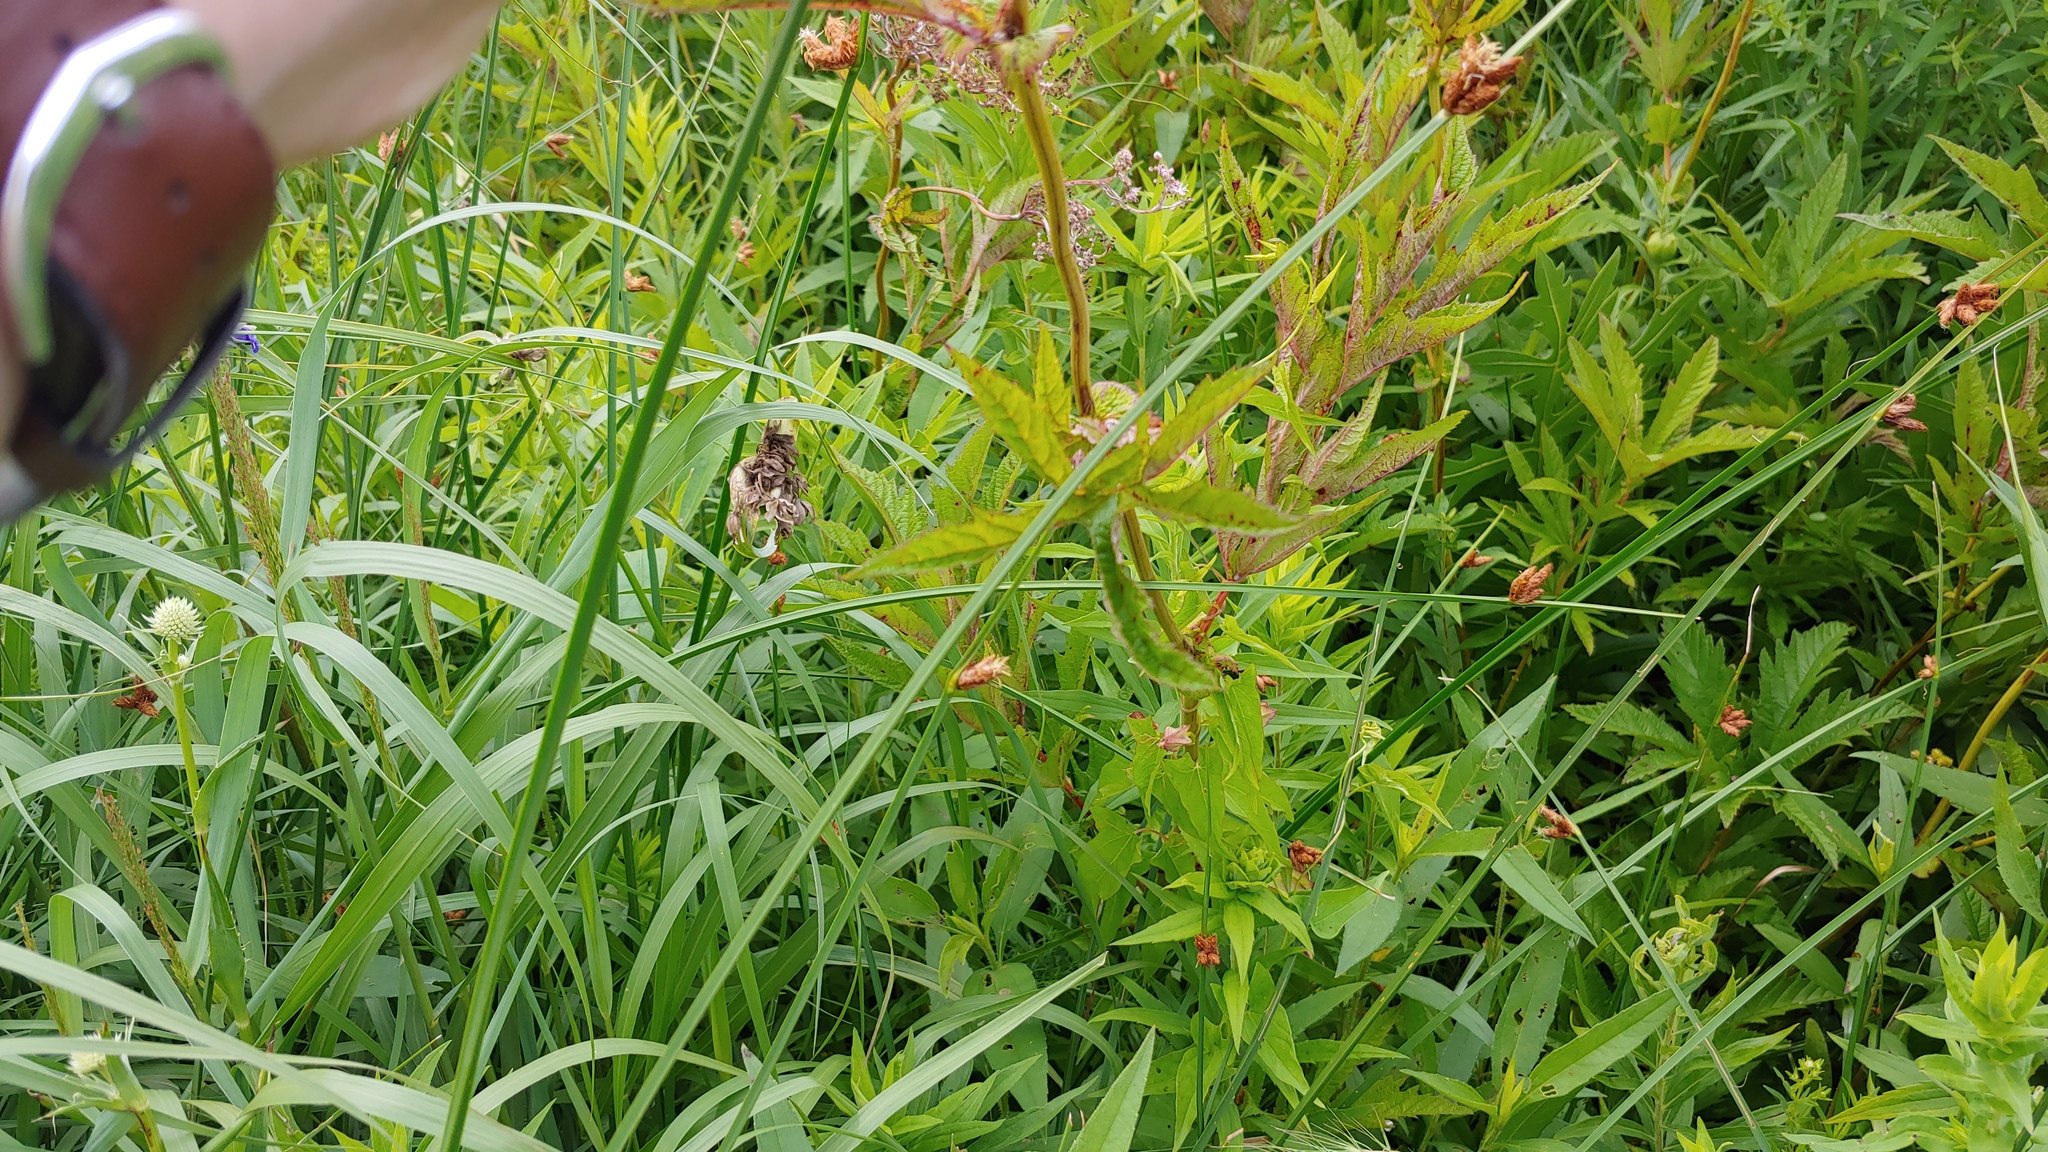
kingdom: Plantae
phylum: Tracheophyta
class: Magnoliopsida
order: Rosales
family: Rosaceae
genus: Filipendula
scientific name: Filipendula rubra
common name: Queen-of-the-prairie
